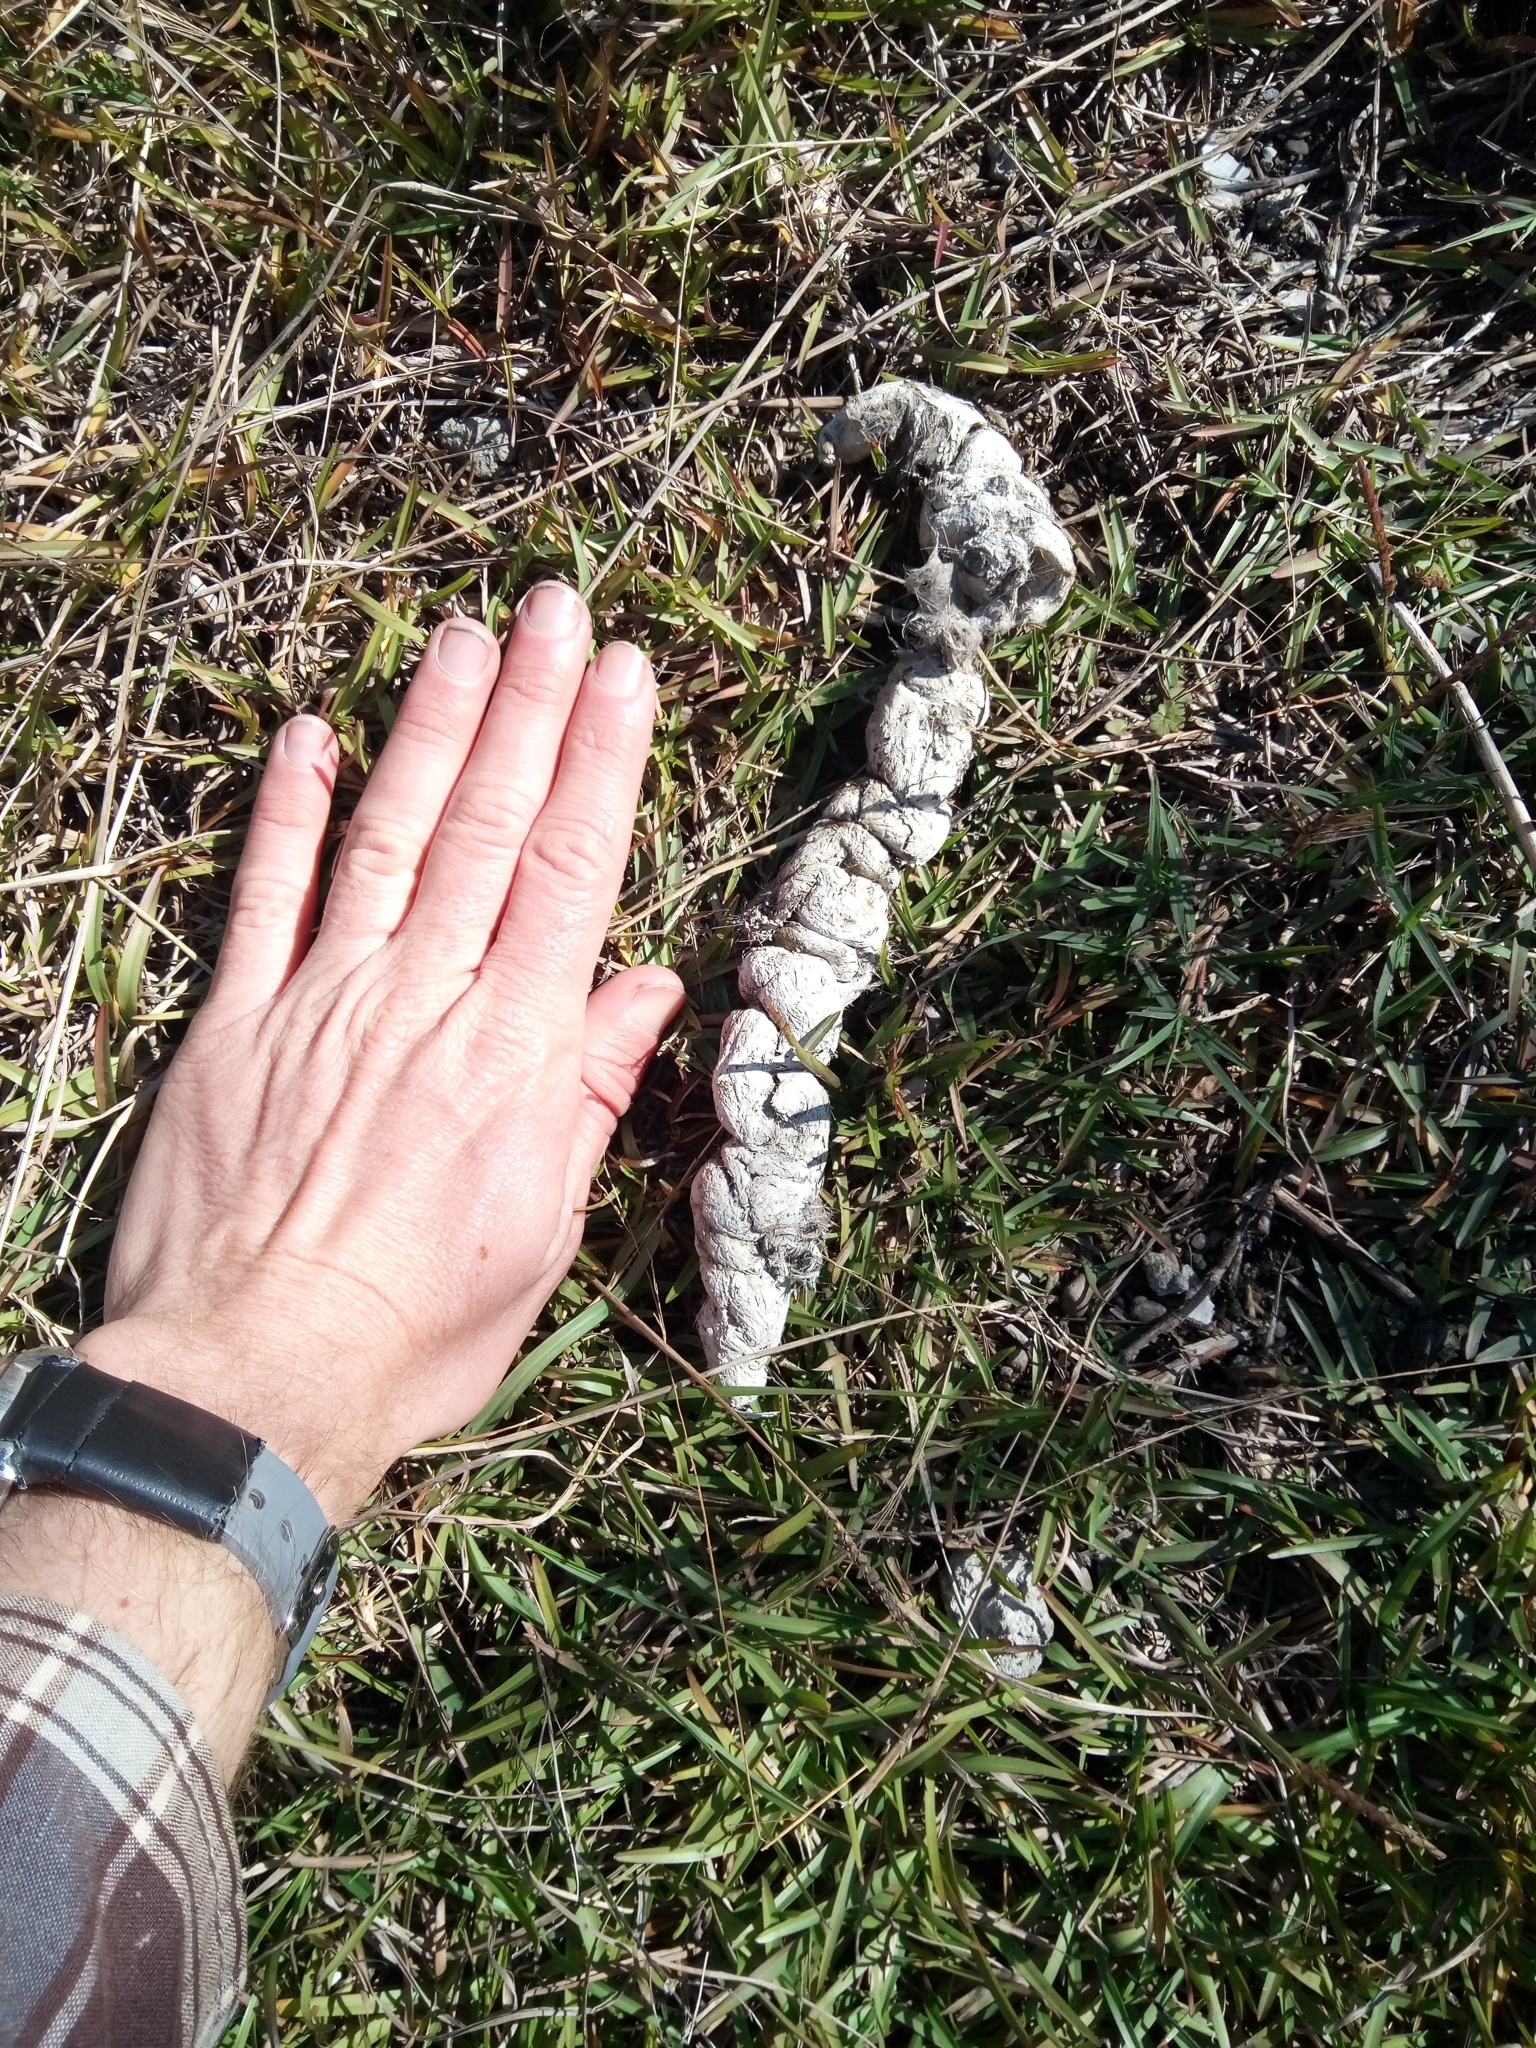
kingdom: Animalia
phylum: Chordata
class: Mammalia
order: Carnivora
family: Canidae
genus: Canis
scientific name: Canis latrans
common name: Coyote
